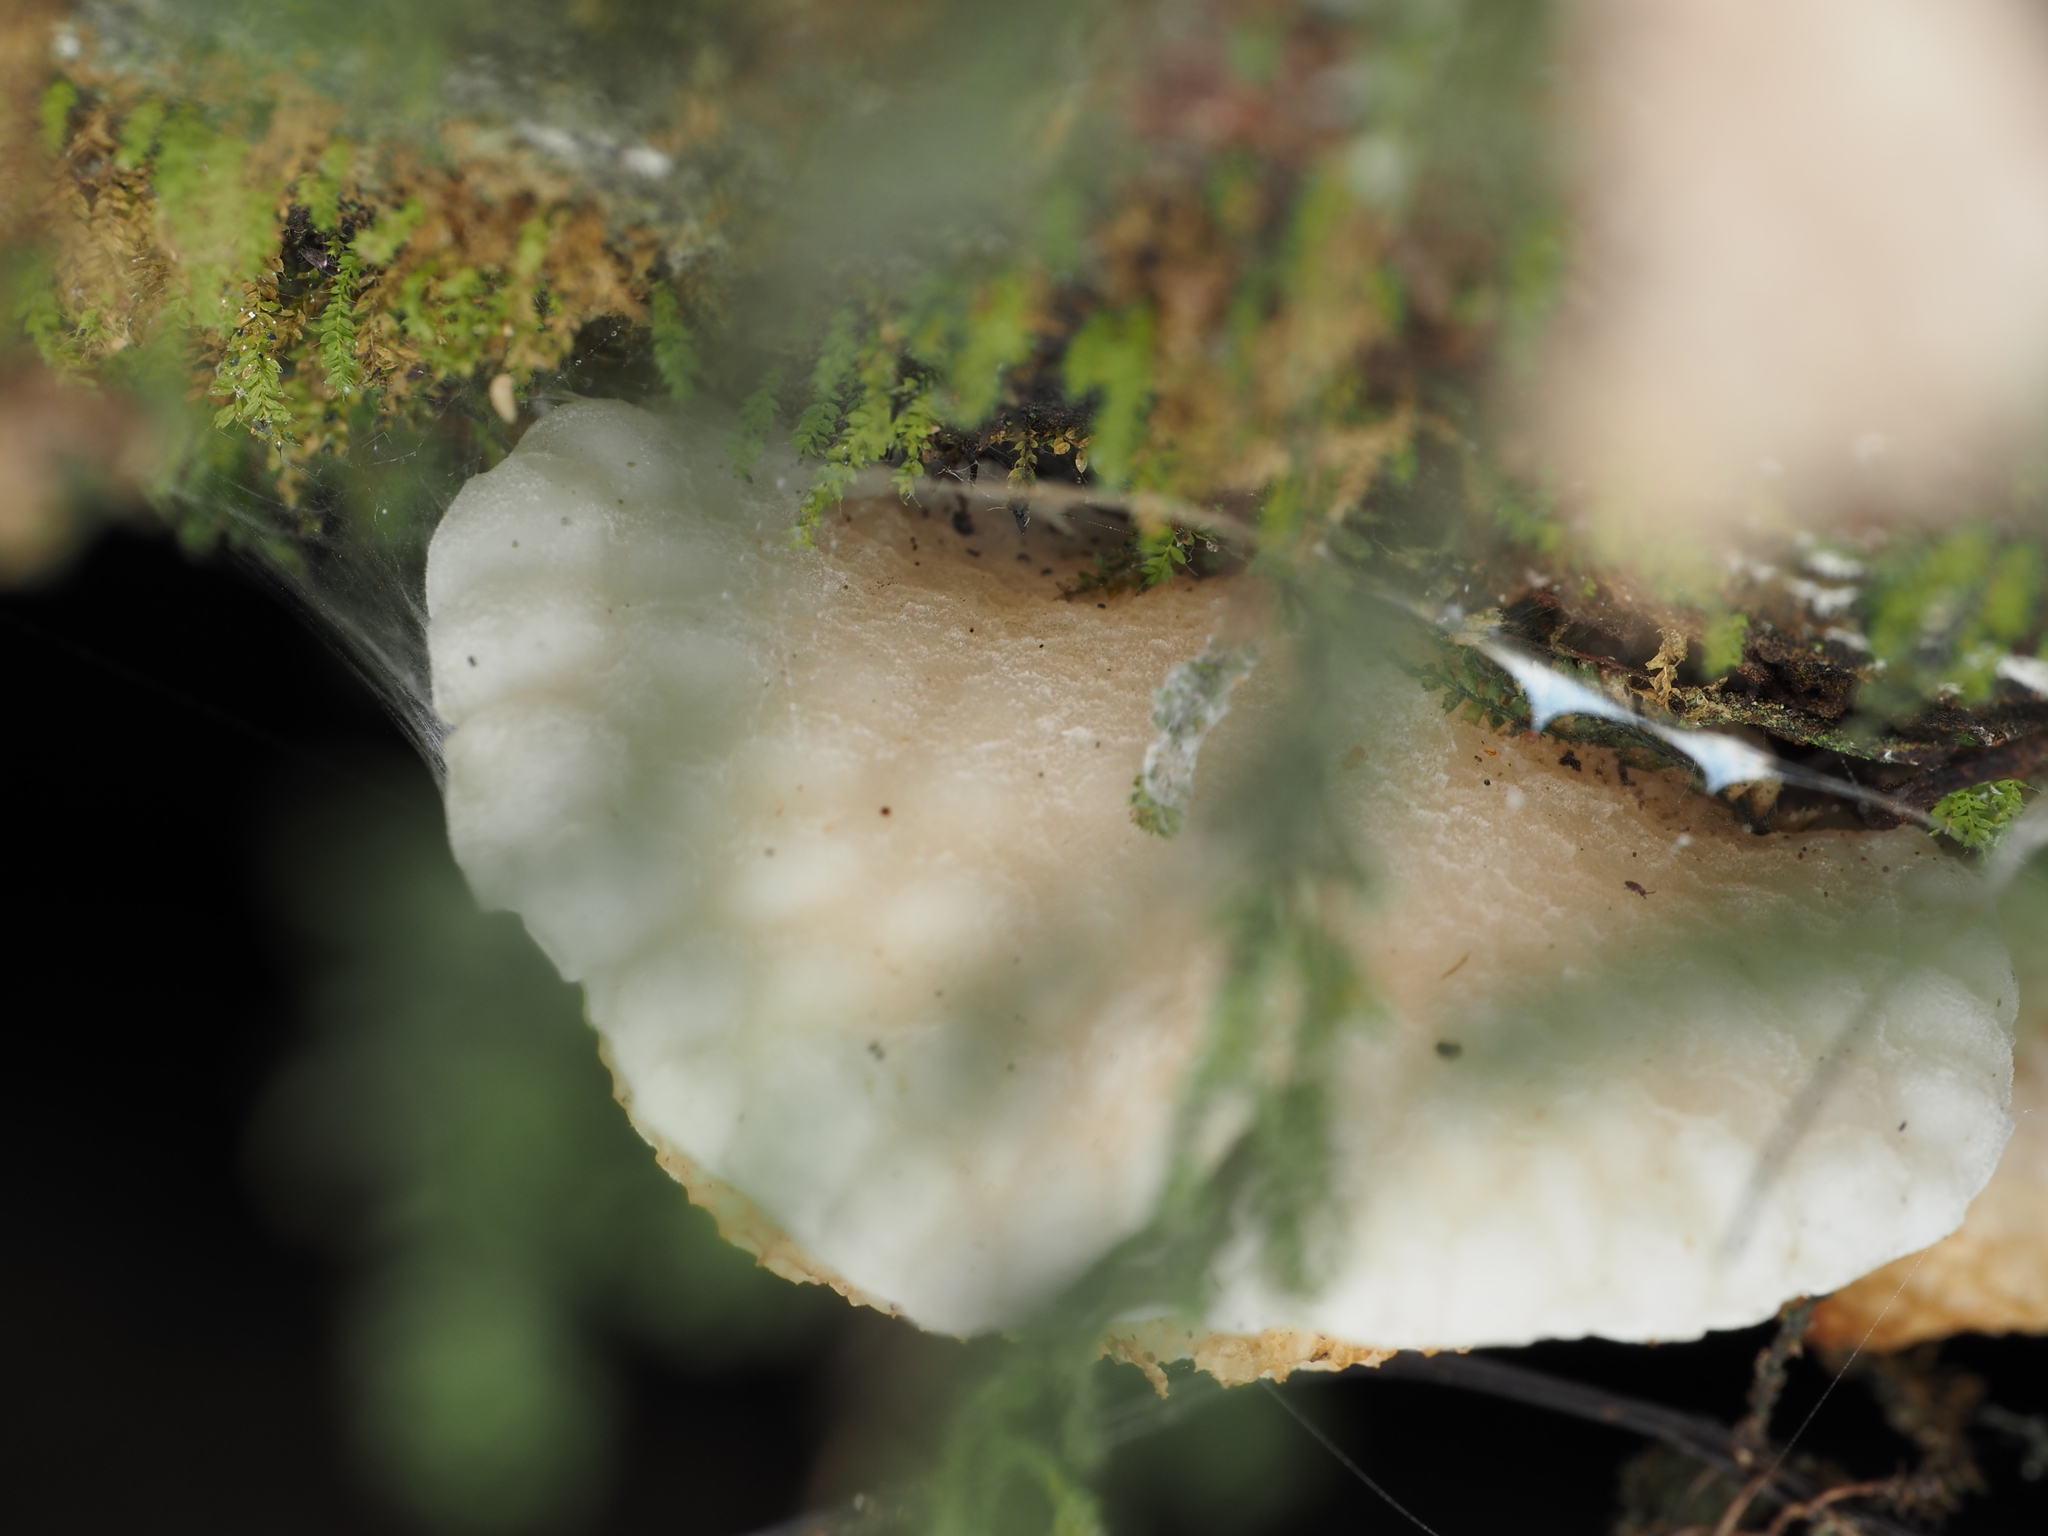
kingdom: Fungi
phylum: Basidiomycota
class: Agaricomycetes
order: Agaricales
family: Mycenaceae
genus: Favolaschia
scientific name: Favolaschia pustulosa
